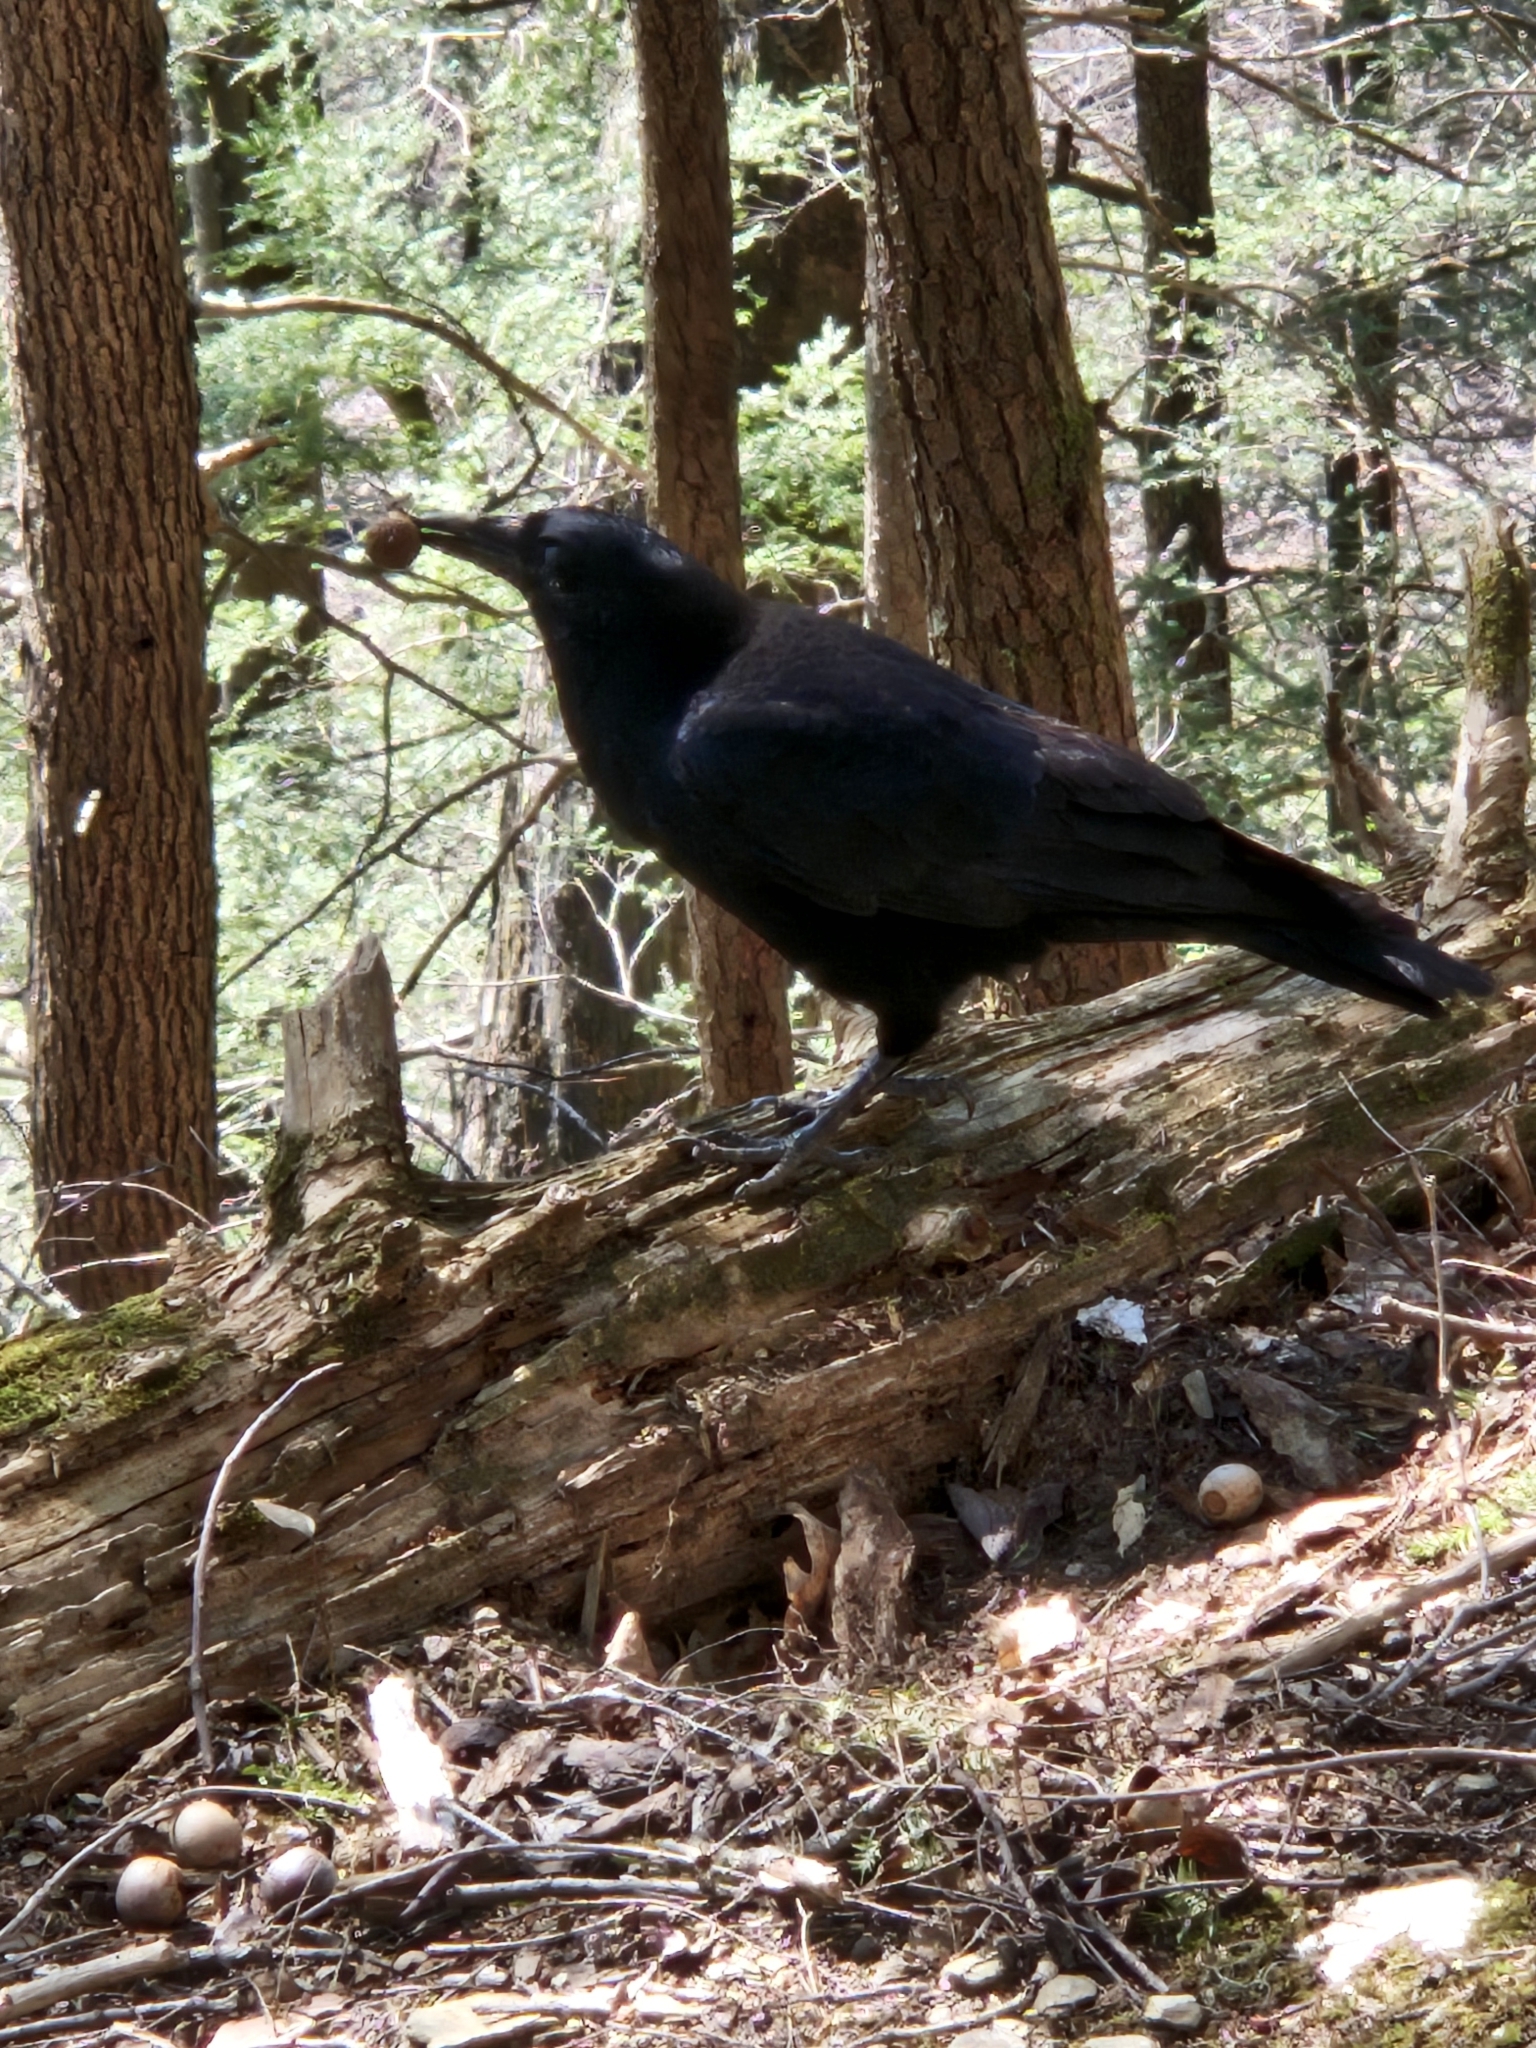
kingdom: Animalia
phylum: Chordata
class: Aves
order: Passeriformes
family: Corvidae
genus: Corvus
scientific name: Corvus brachyrhynchos
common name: American crow
